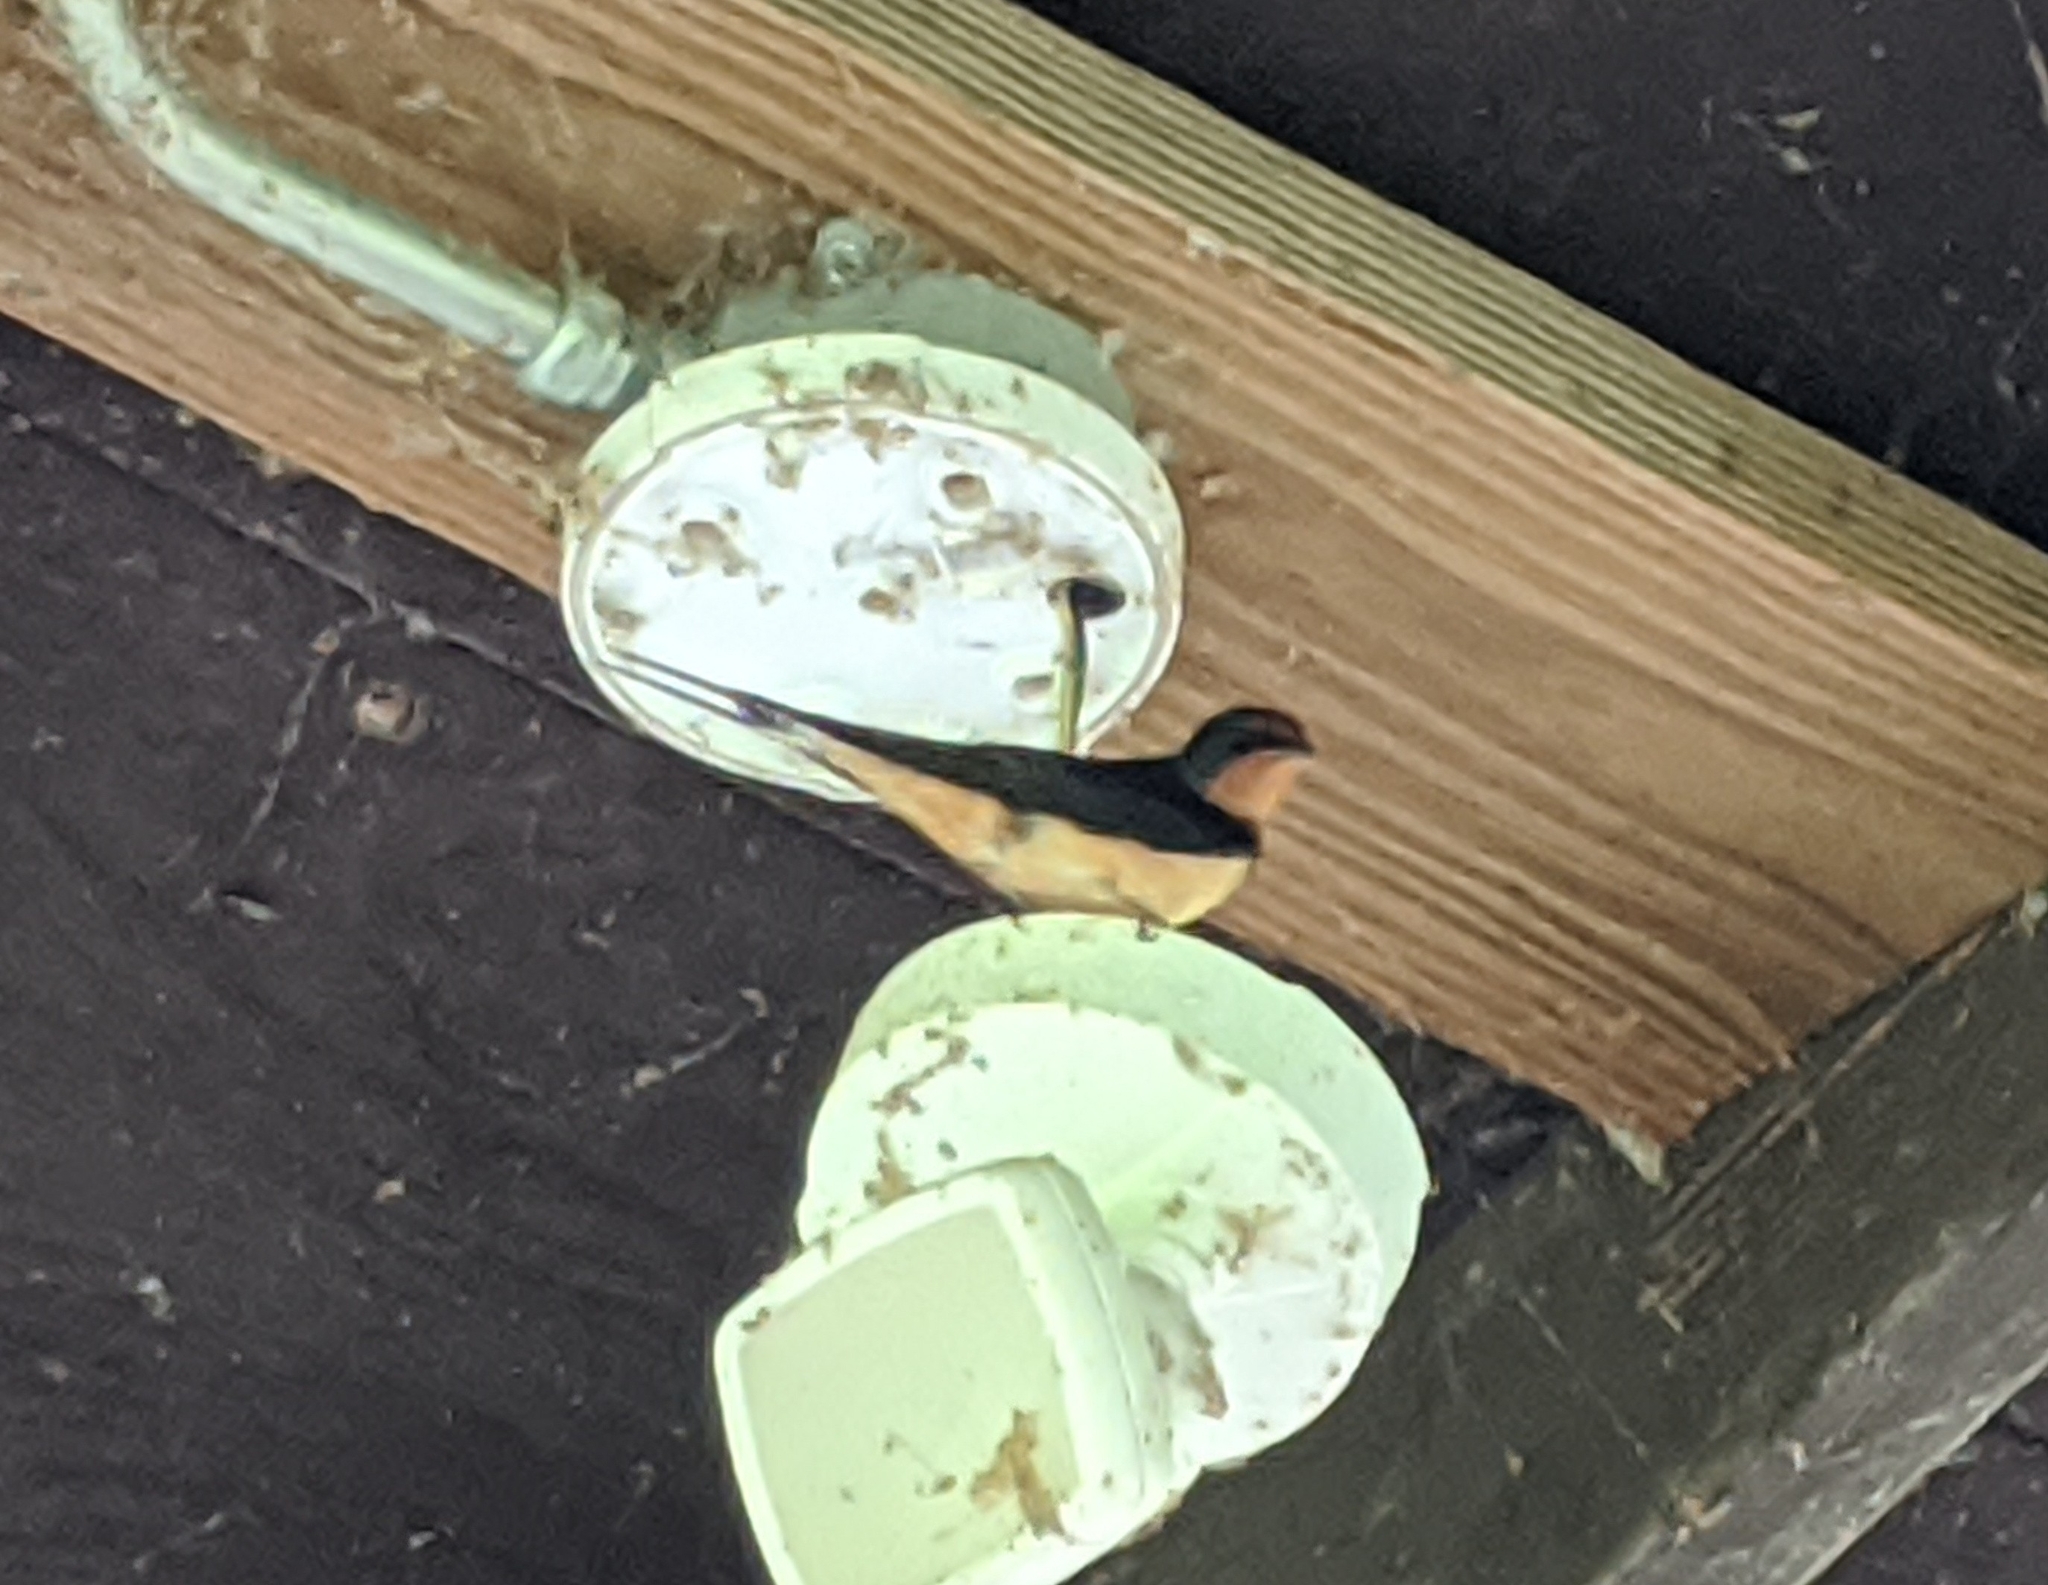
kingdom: Animalia
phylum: Chordata
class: Aves
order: Passeriformes
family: Hirundinidae
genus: Hirundo
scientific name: Hirundo rustica
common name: Barn swallow
